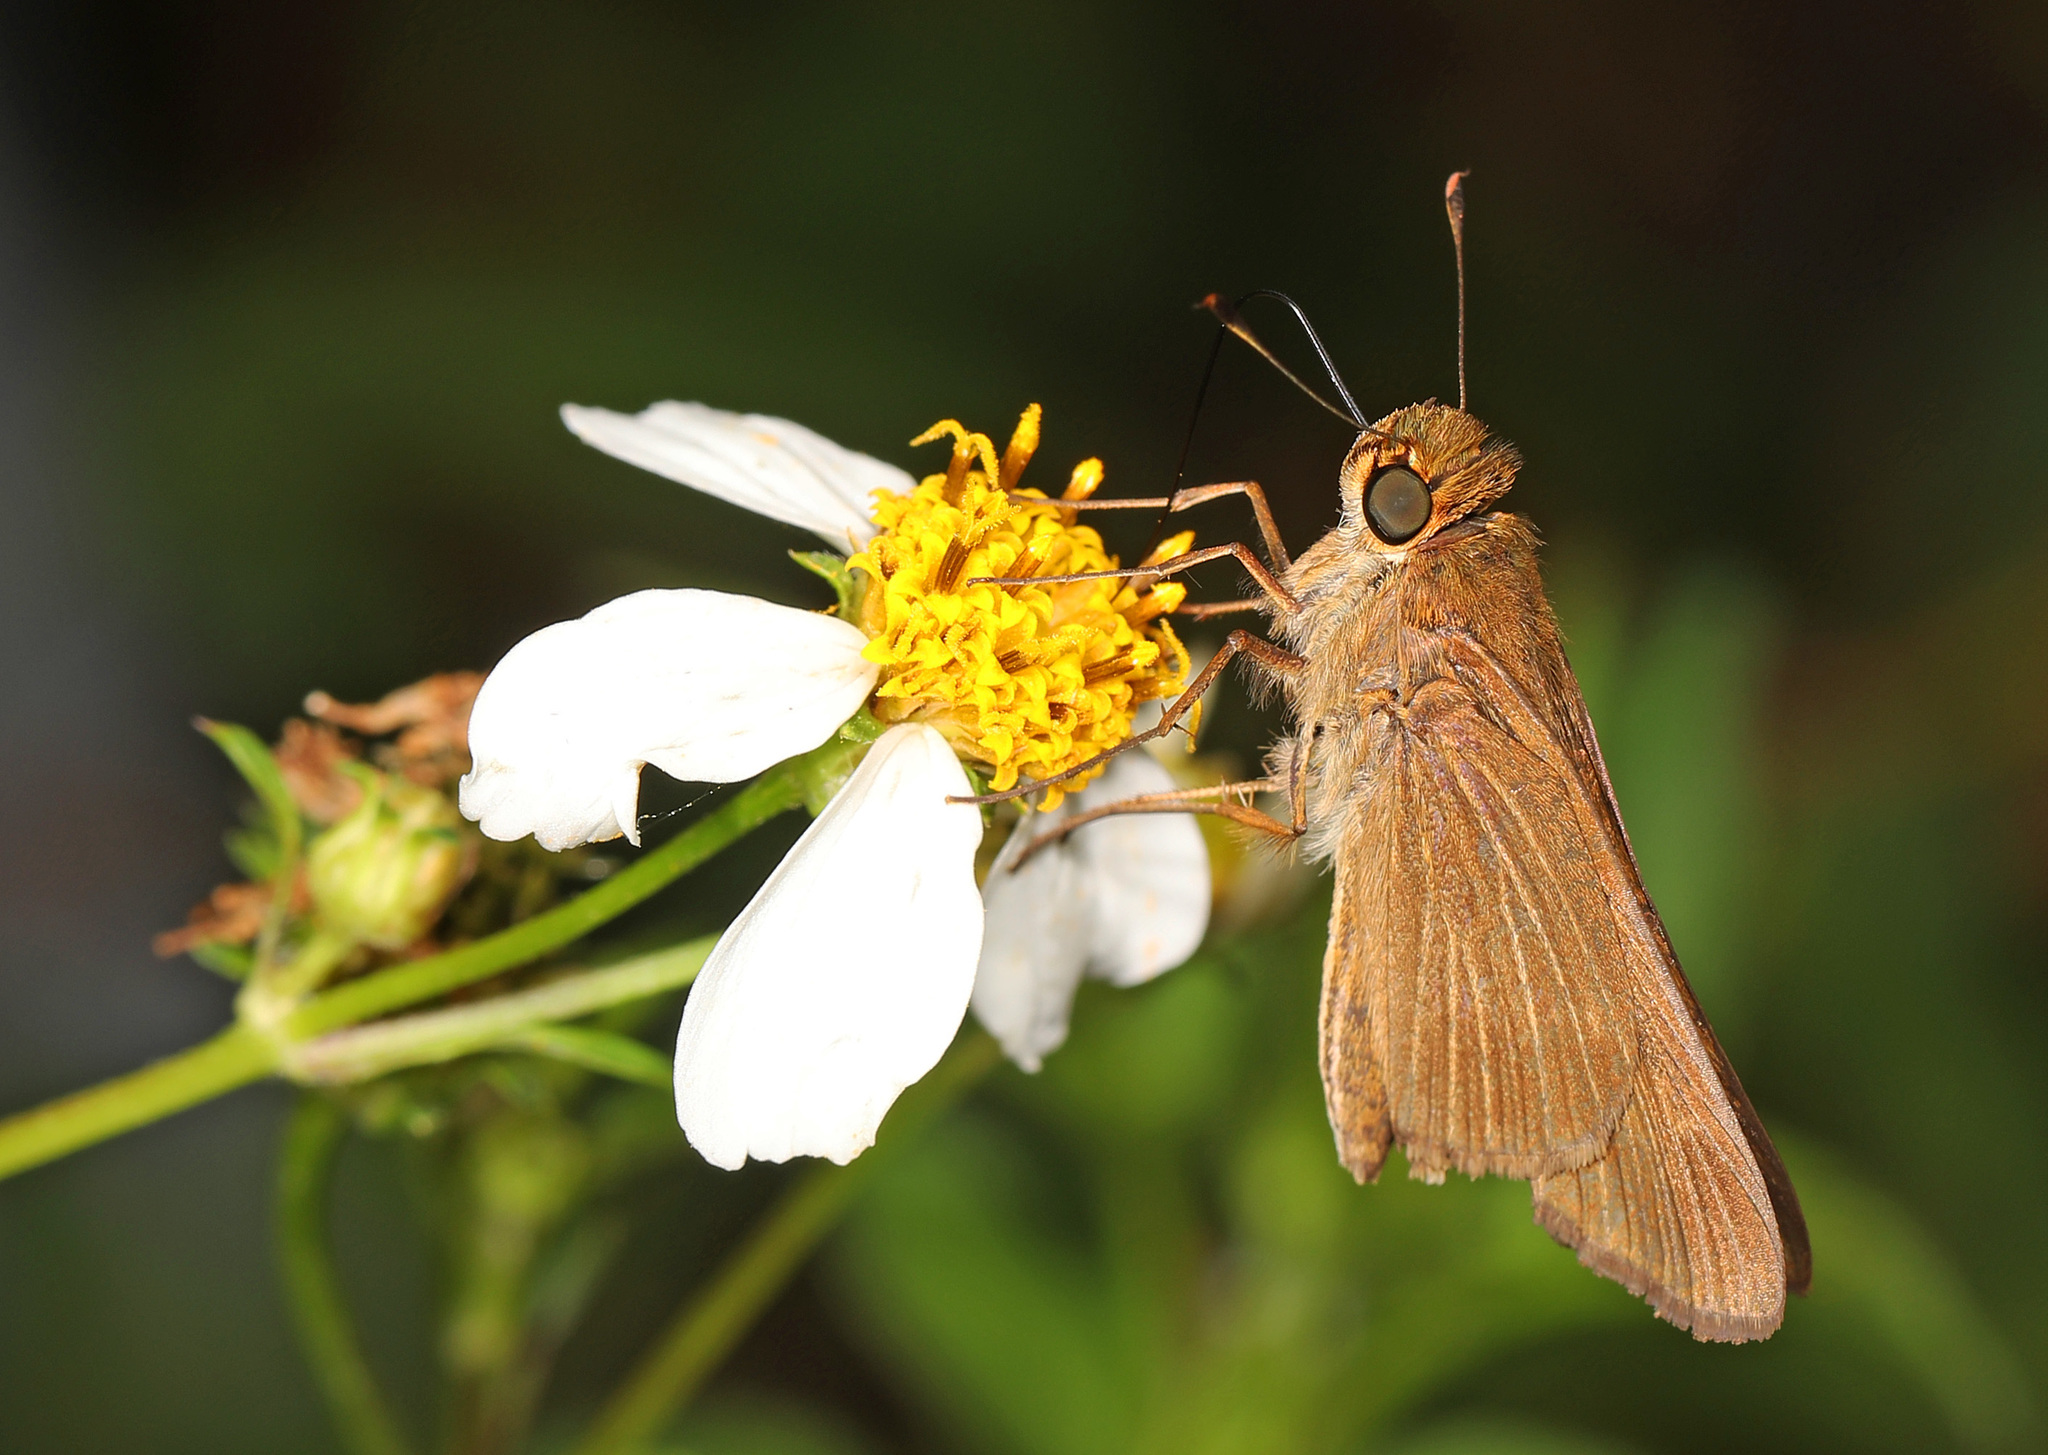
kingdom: Animalia
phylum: Arthropoda
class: Insecta
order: Lepidoptera
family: Hesperiidae
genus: Panoquina
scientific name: Panoquina ocola
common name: Ocola skipper
